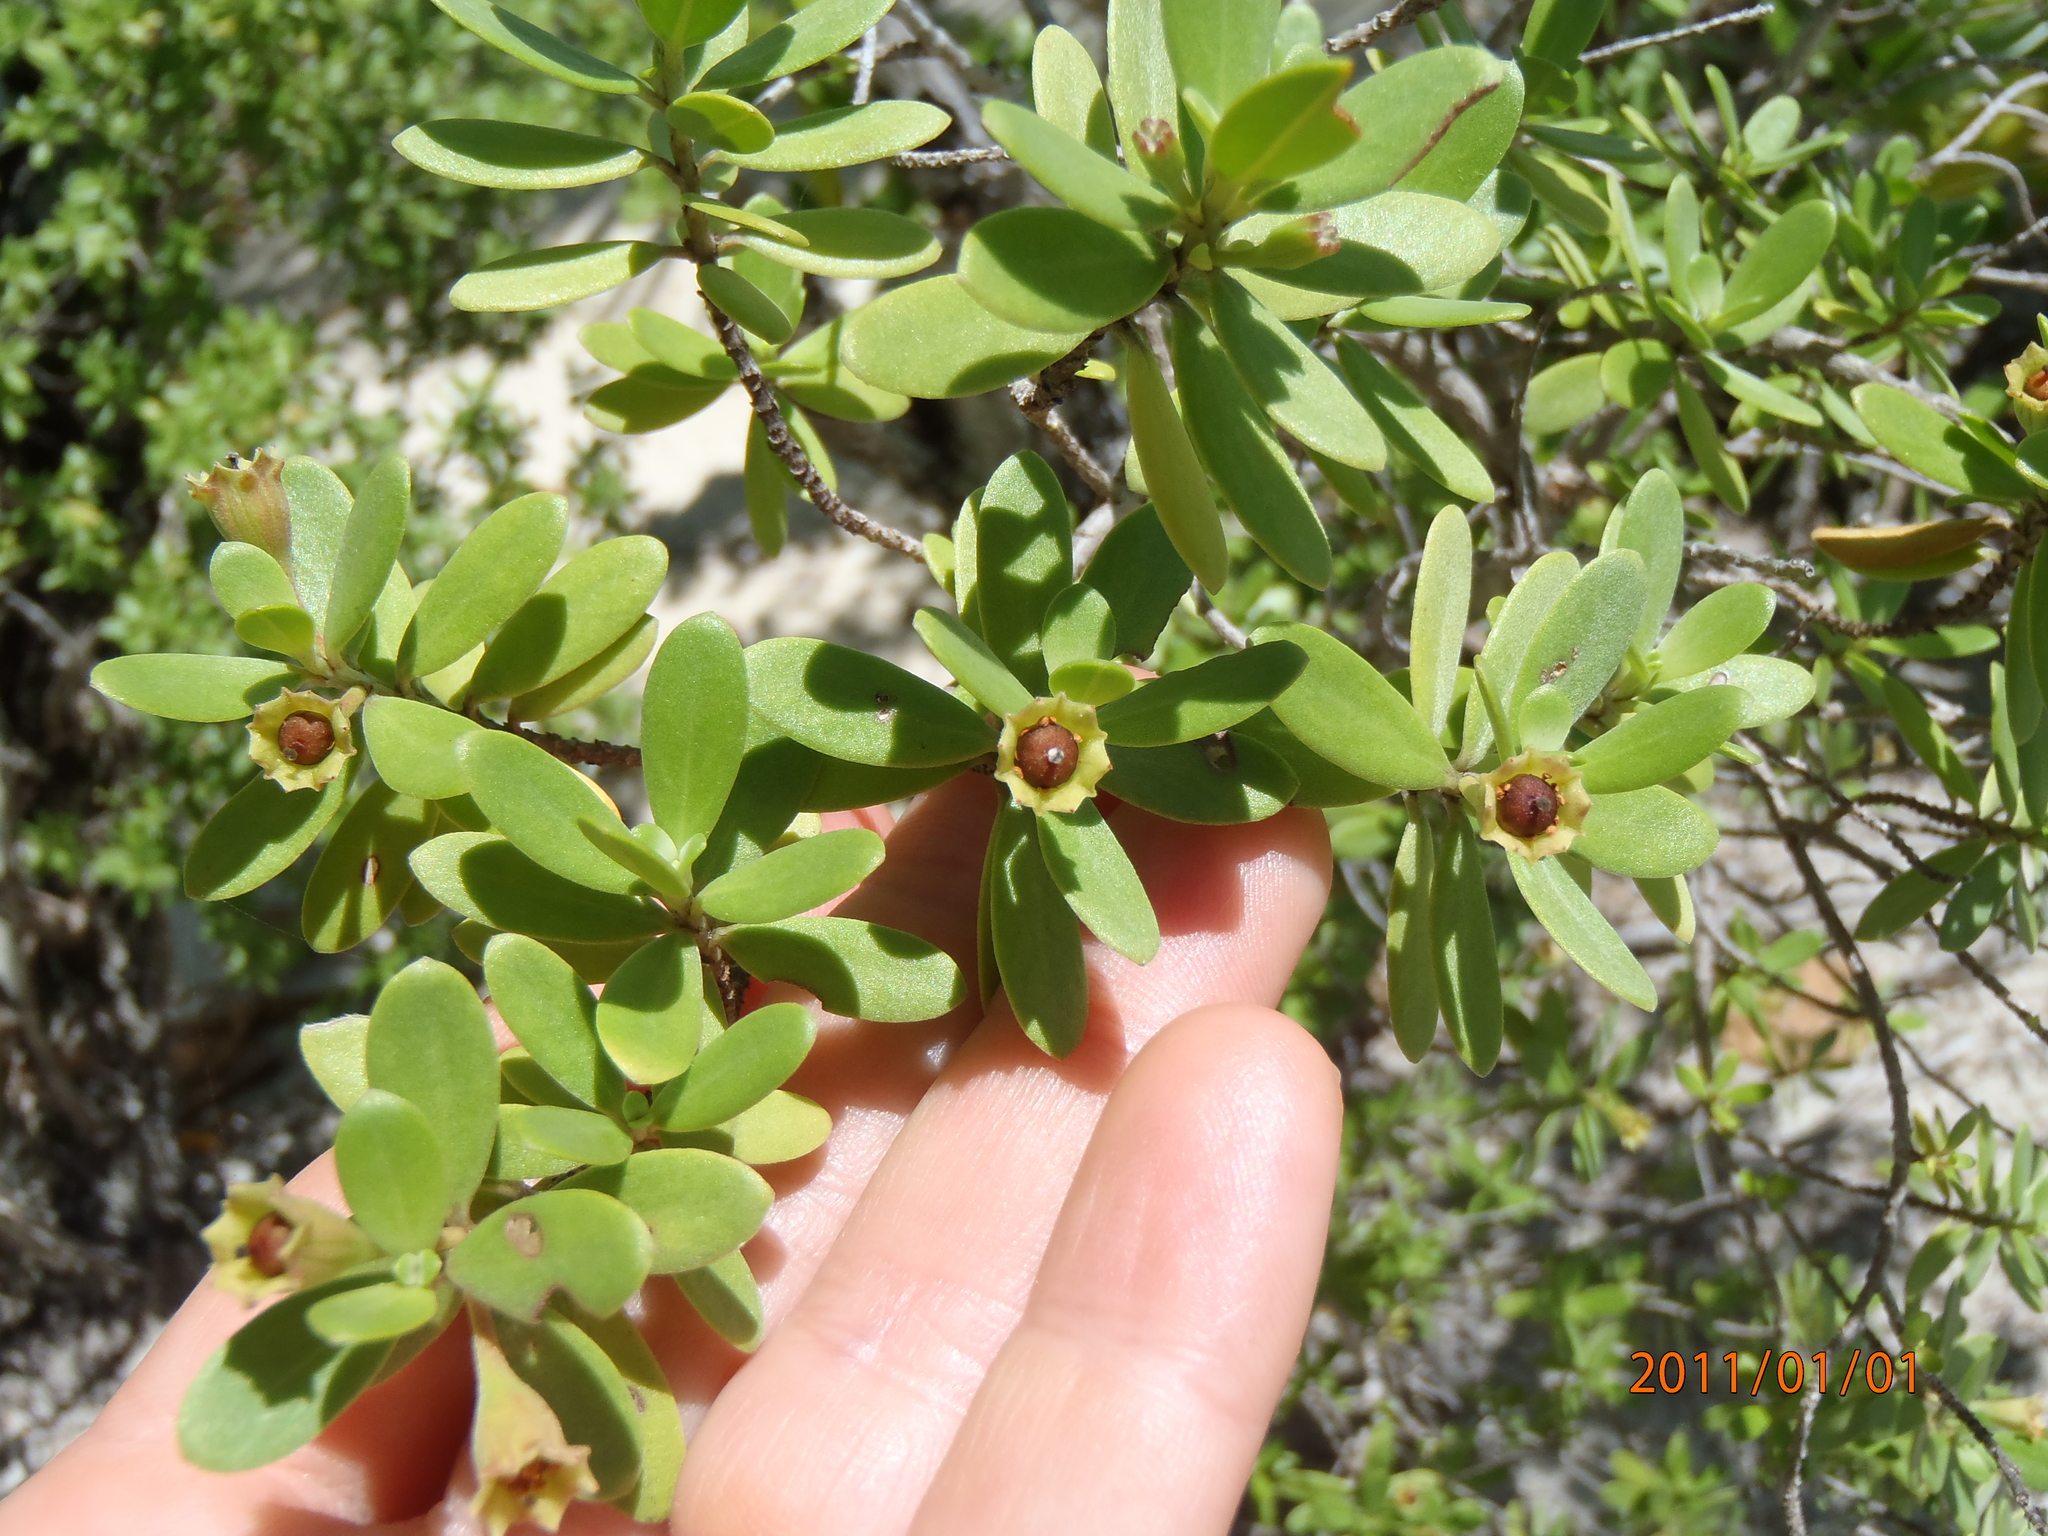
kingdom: Plantae
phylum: Tracheophyta
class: Magnoliopsida
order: Myrtales
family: Lythraceae
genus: Pemphis
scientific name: Pemphis acidula
